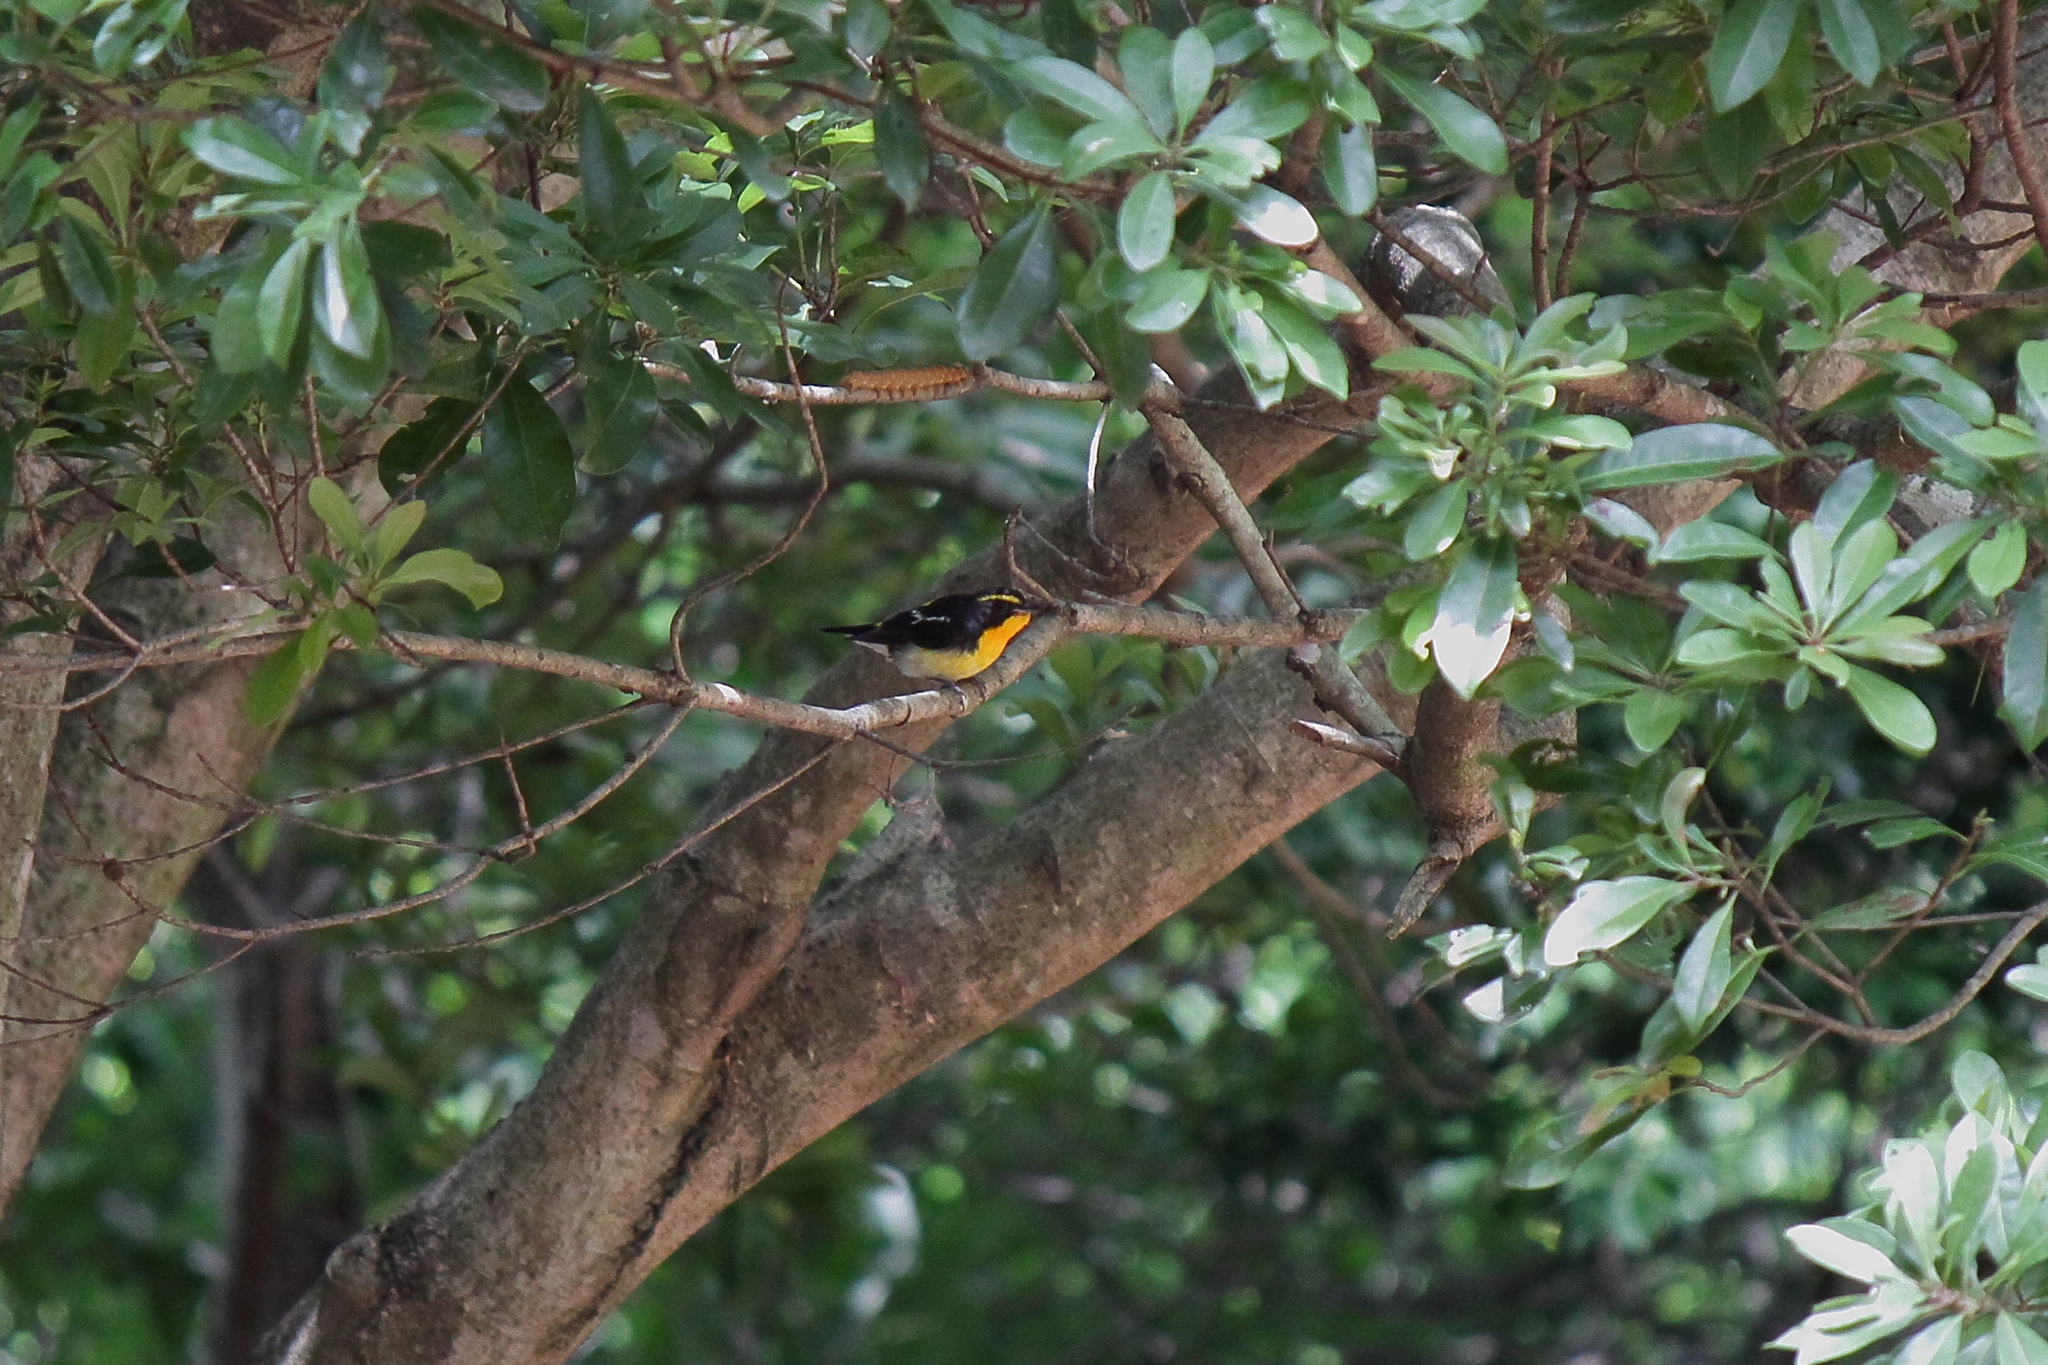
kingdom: Animalia
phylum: Chordata
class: Aves
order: Passeriformes
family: Muscicapidae
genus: Ficedula
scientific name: Ficedula narcissina
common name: Narcissus flycatcher
